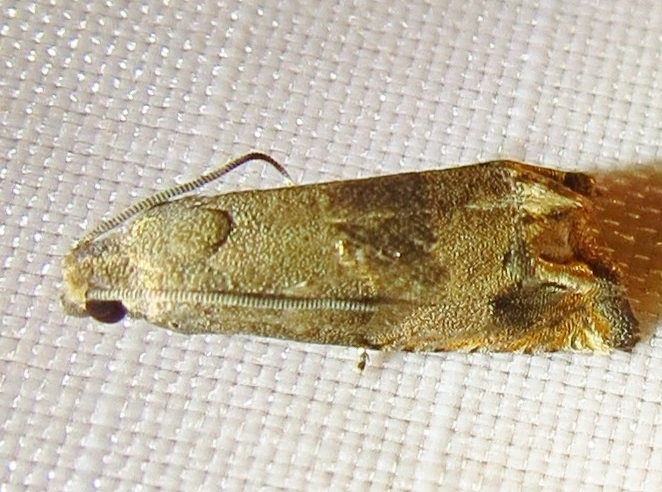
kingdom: Animalia
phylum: Arthropoda
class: Insecta
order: Lepidoptera
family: Tortricidae
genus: Epiblema
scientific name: Epiblema strenuana
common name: Ragweed borer moth
